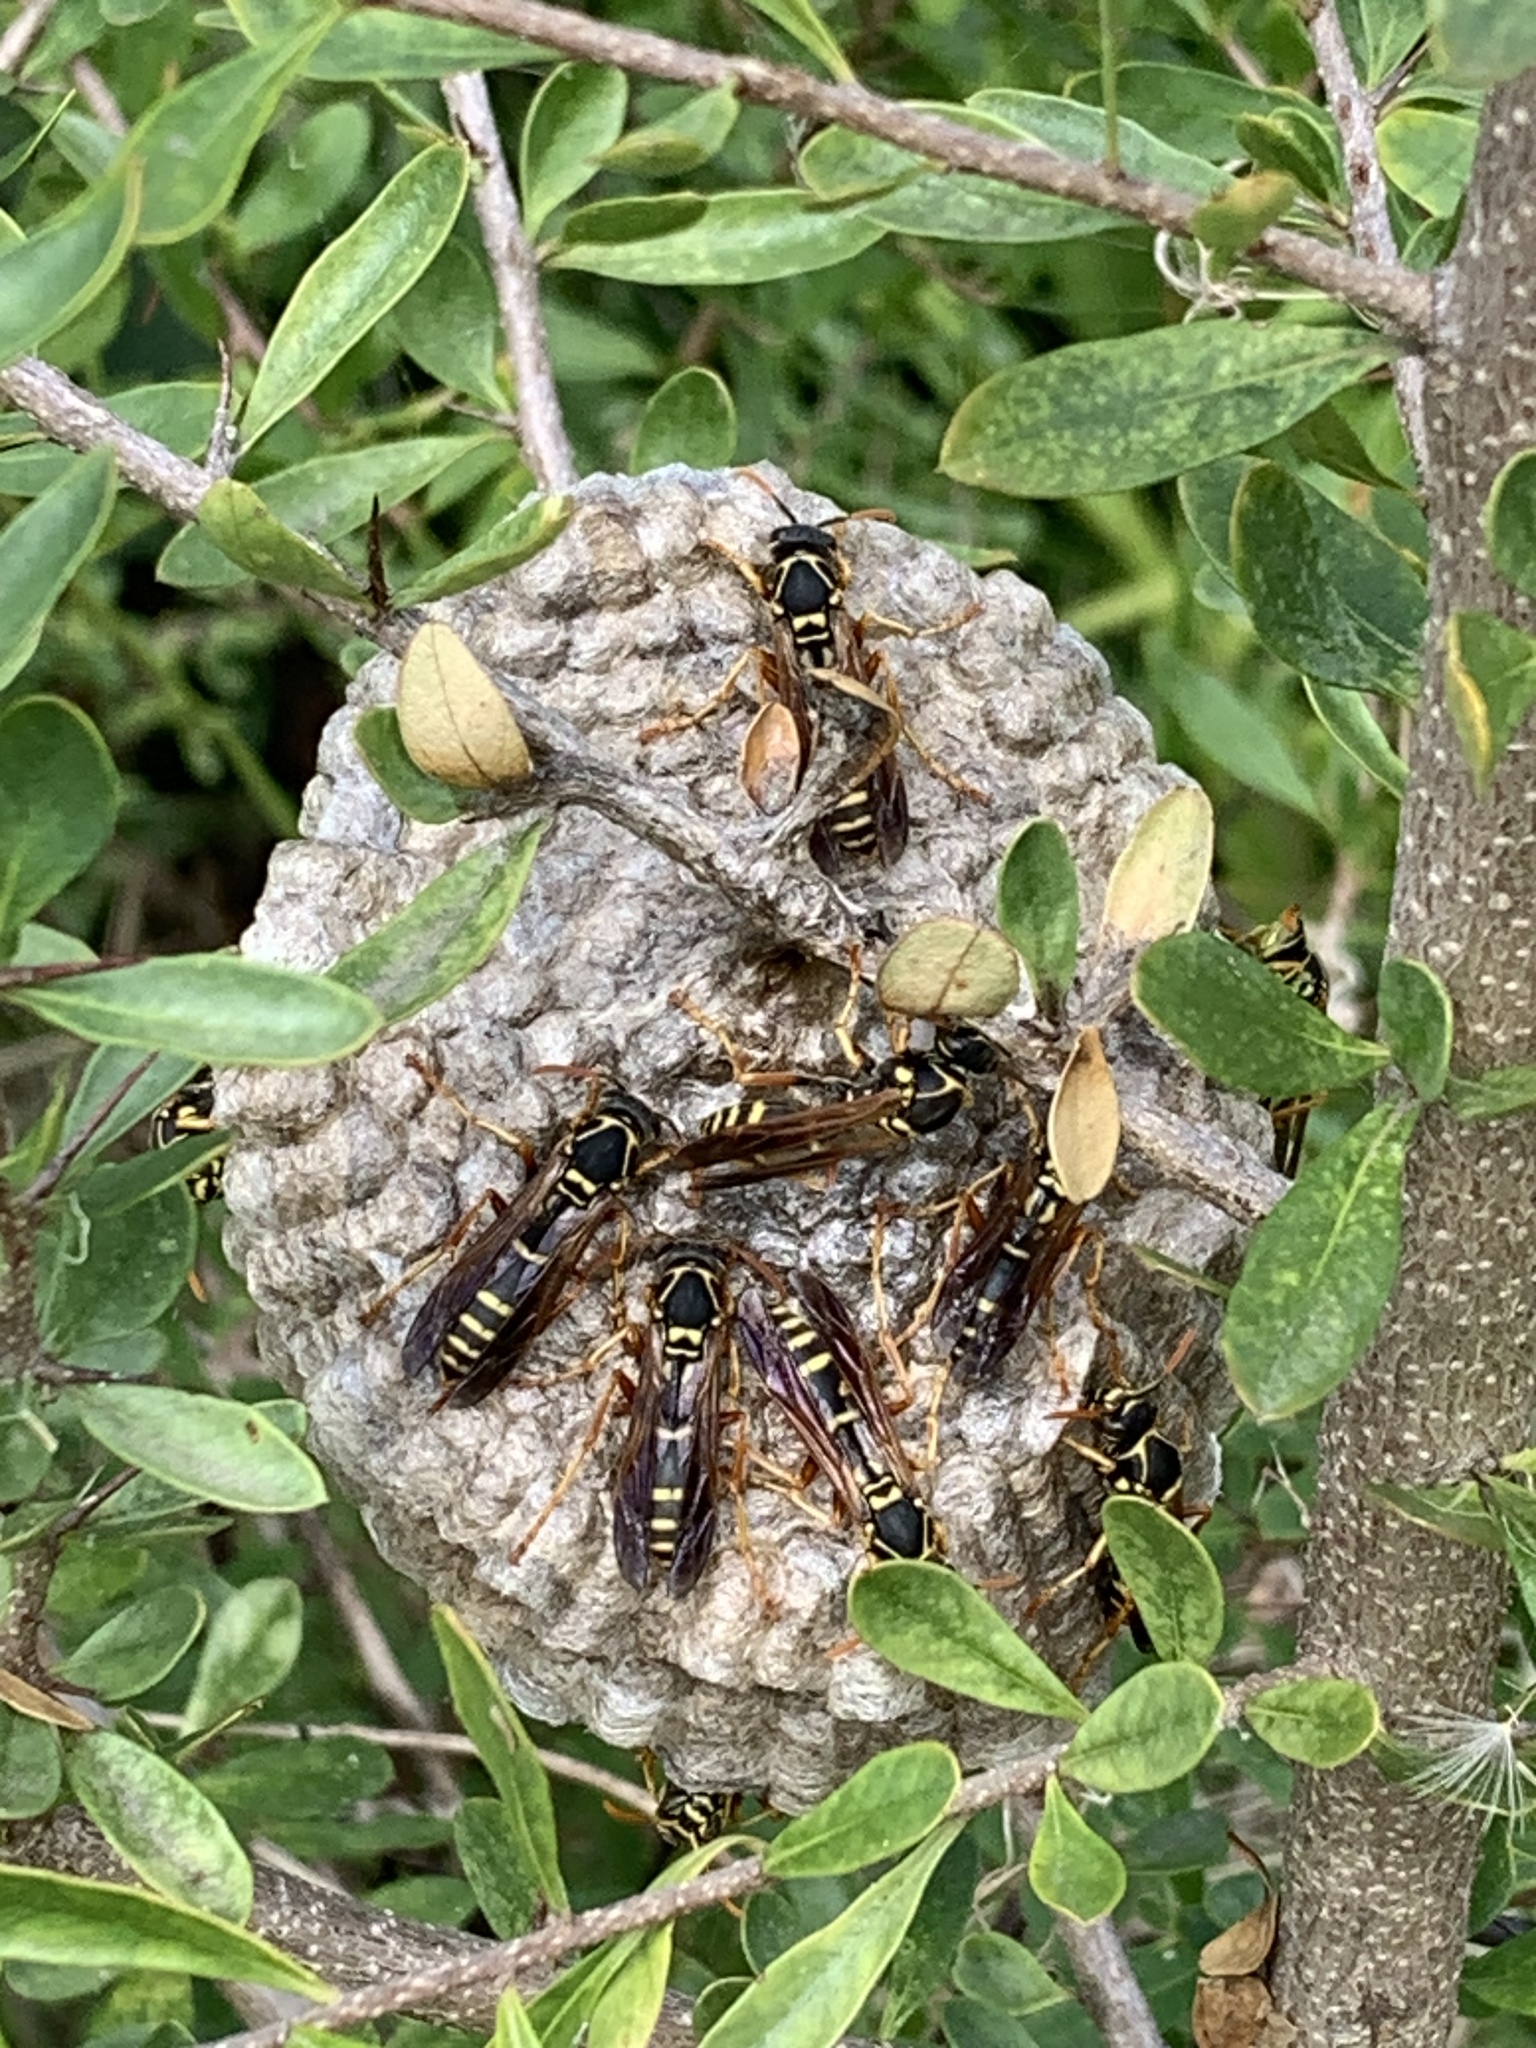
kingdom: Animalia
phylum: Arthropoda
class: Insecta
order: Hymenoptera
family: Eumenidae
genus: Polistes
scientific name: Polistes chinensis
